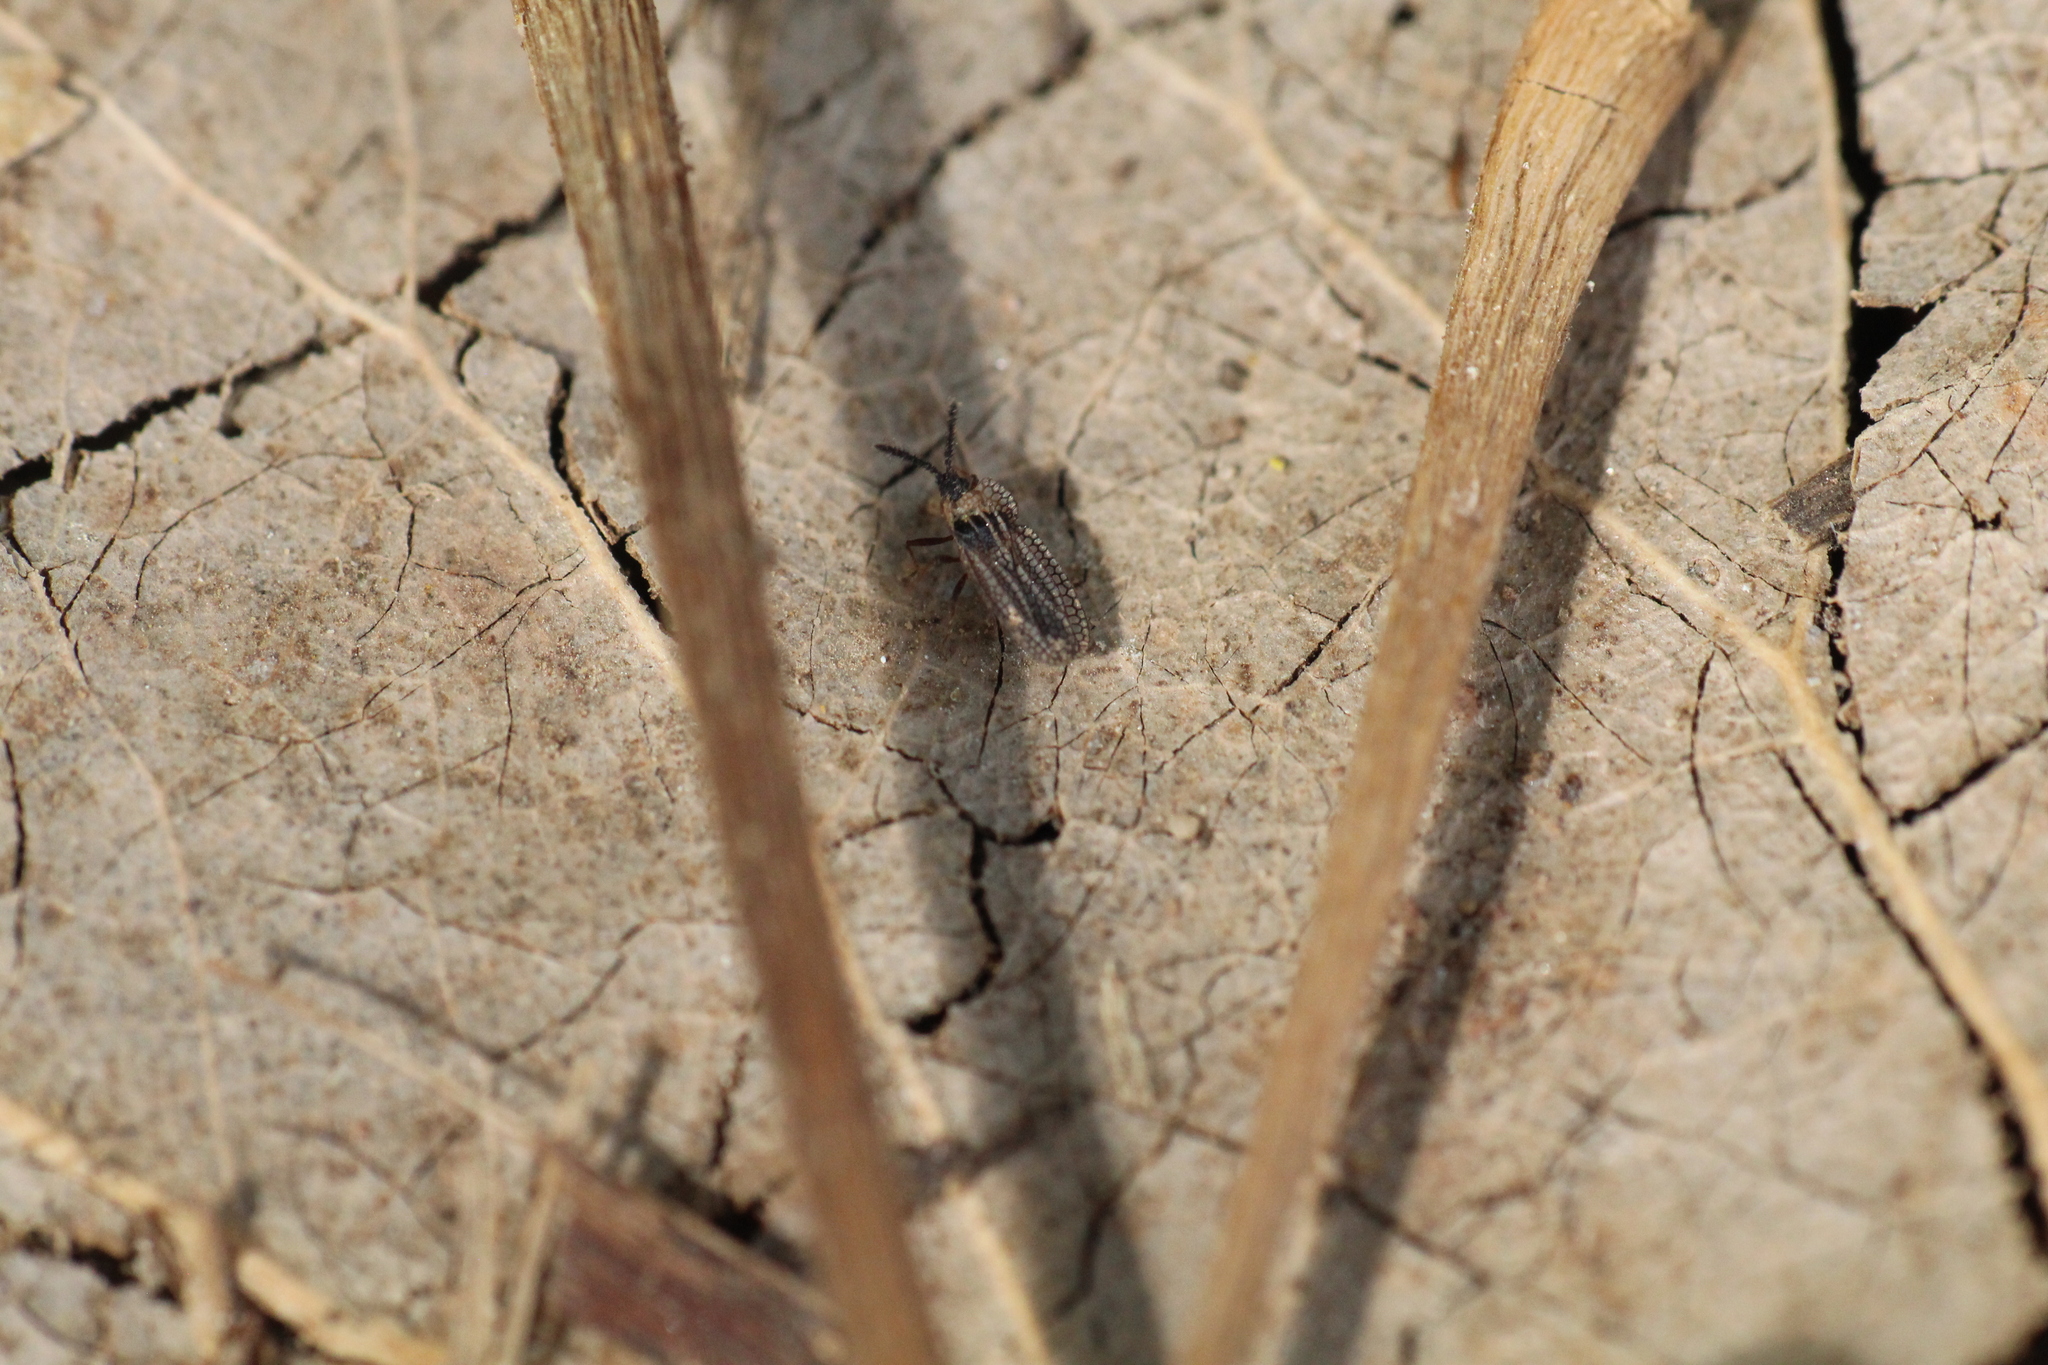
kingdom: Animalia
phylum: Arthropoda
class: Insecta
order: Hemiptera
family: Tingidae
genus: Dictyonota
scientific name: Dictyonota tricornis
